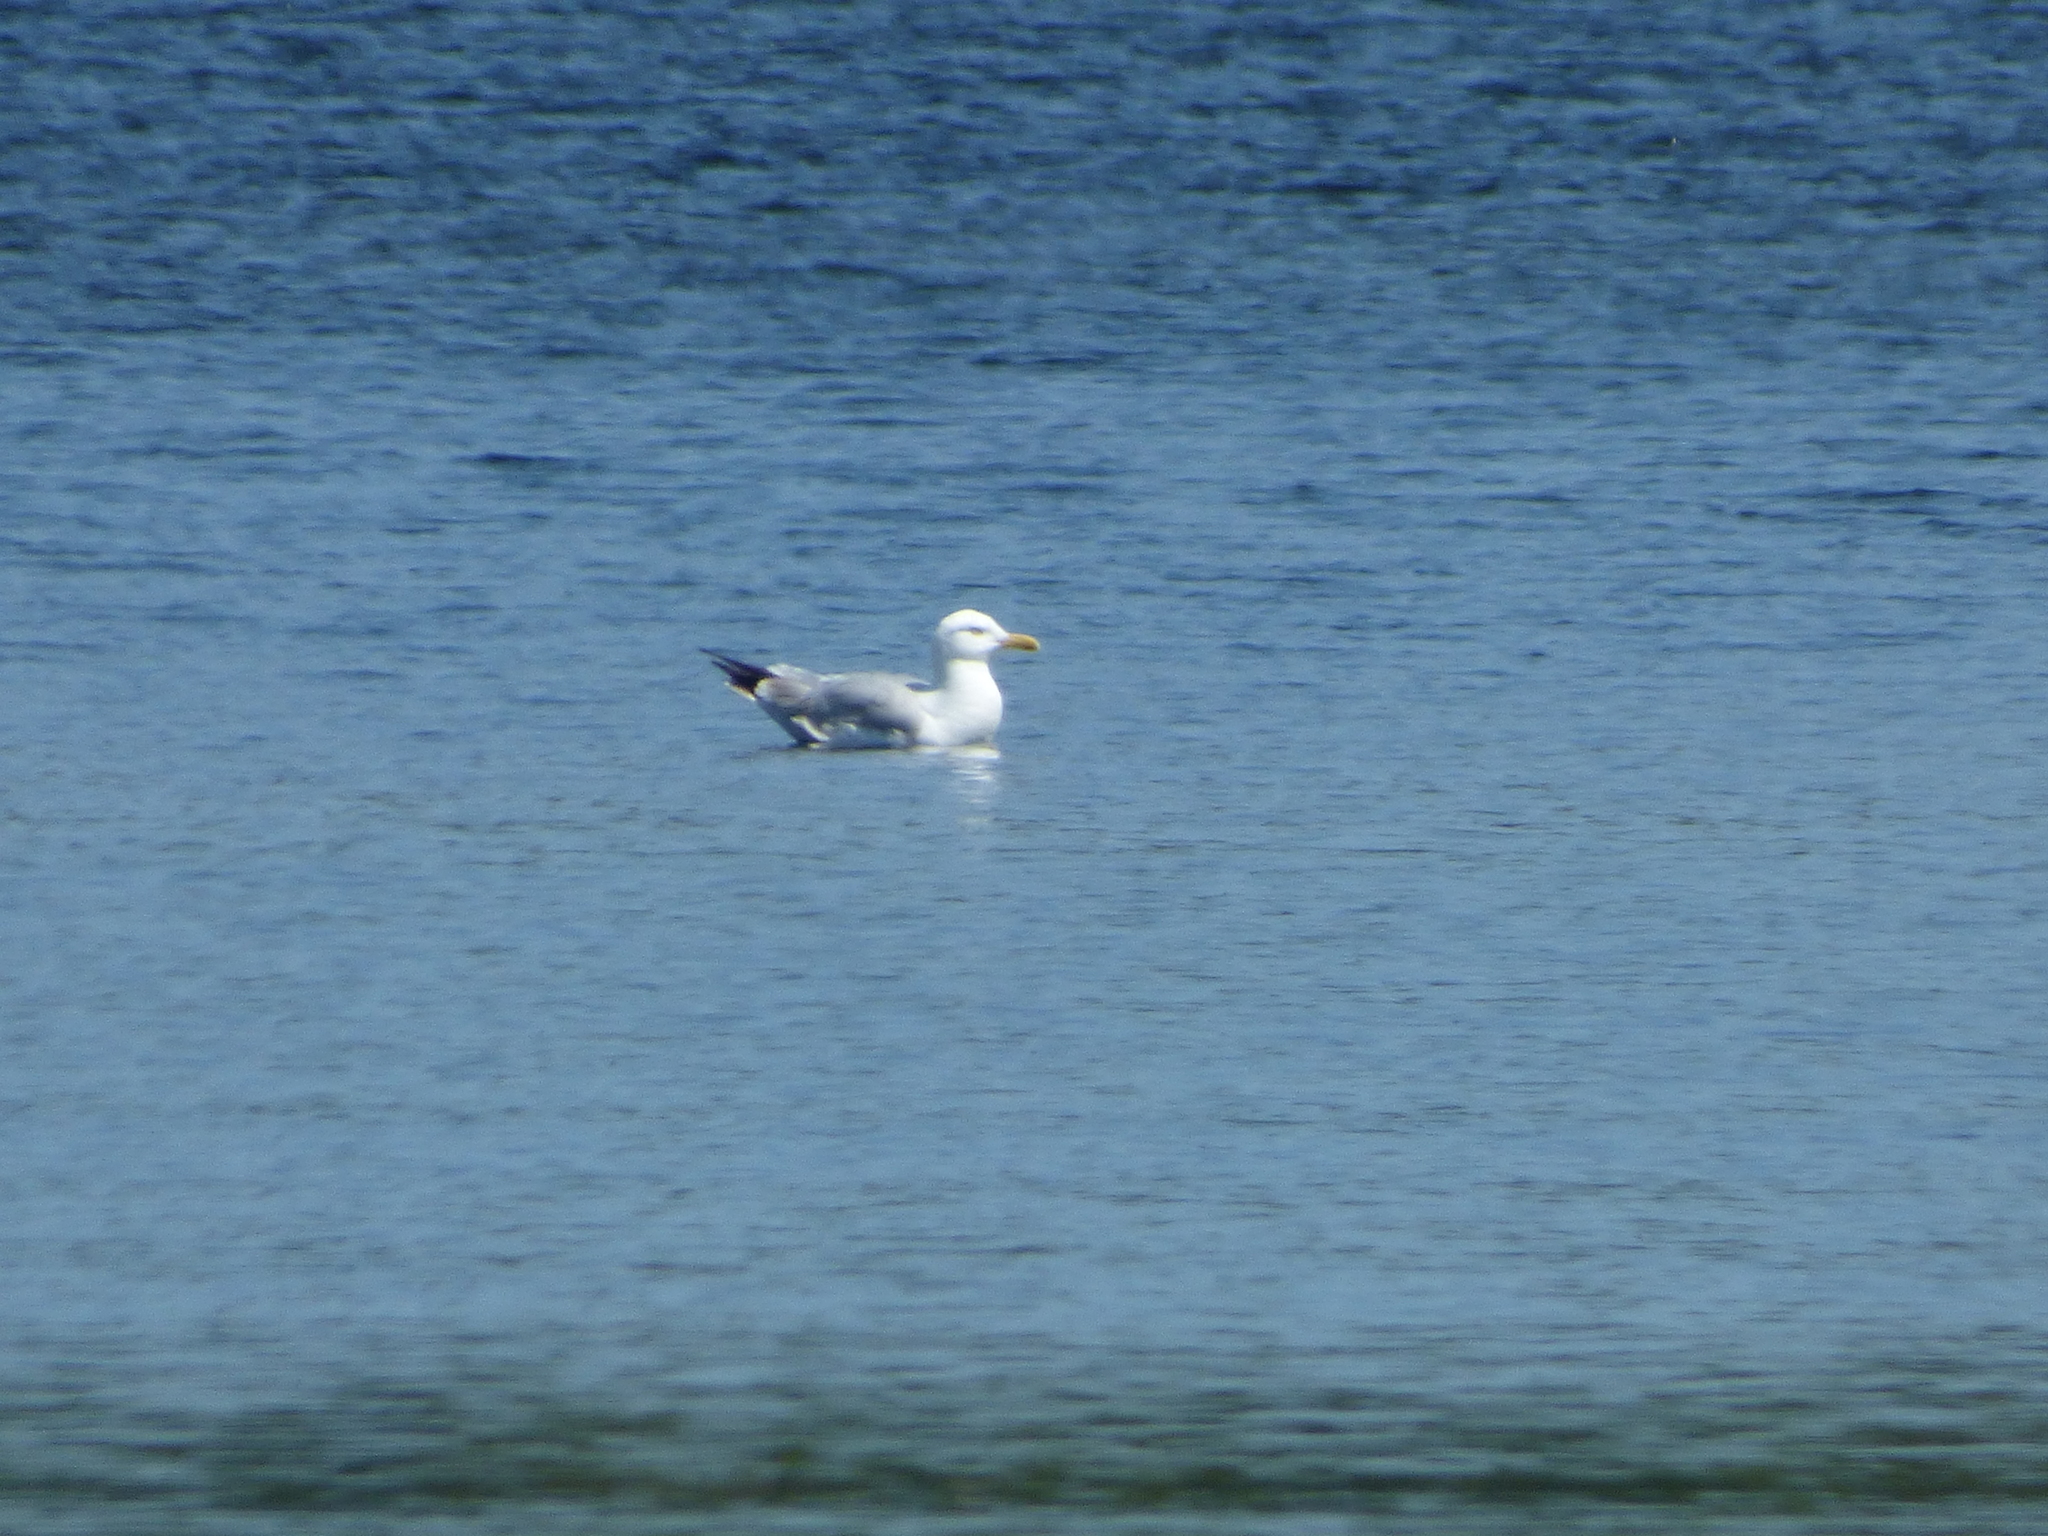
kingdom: Animalia
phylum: Chordata
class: Aves
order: Charadriiformes
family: Laridae
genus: Larus
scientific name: Larus smithsonianus
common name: American herring gull
